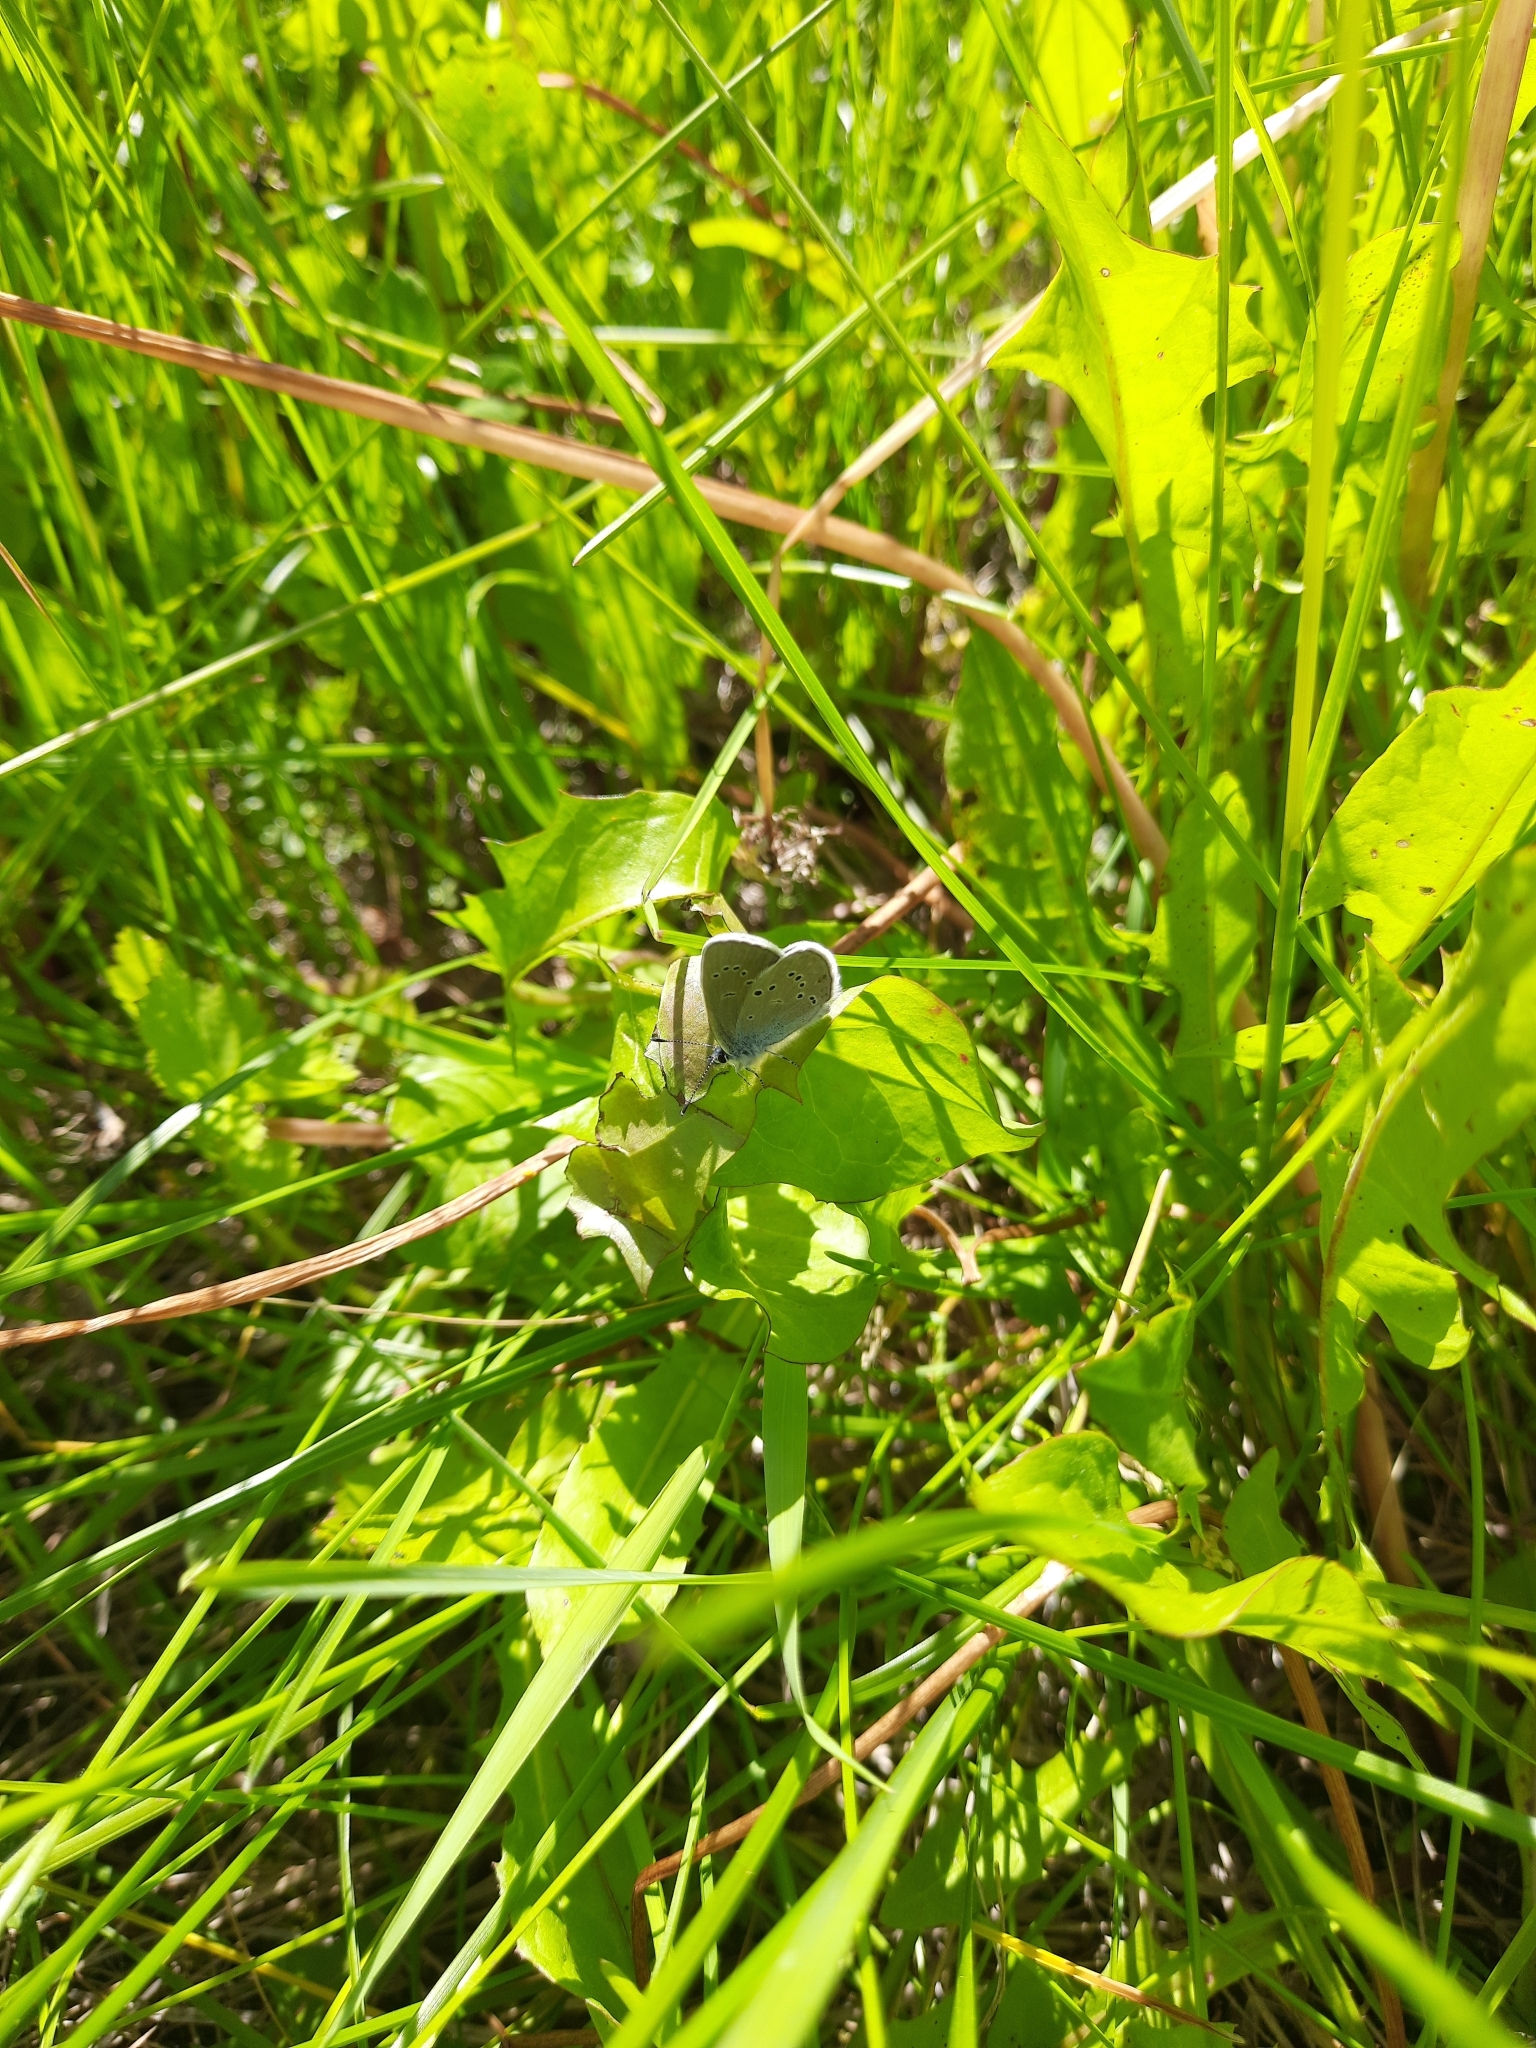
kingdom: Animalia
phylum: Arthropoda
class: Insecta
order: Lepidoptera
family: Lycaenidae
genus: Cyaniris
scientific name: Cyaniris semiargus
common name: Mazarine blue
